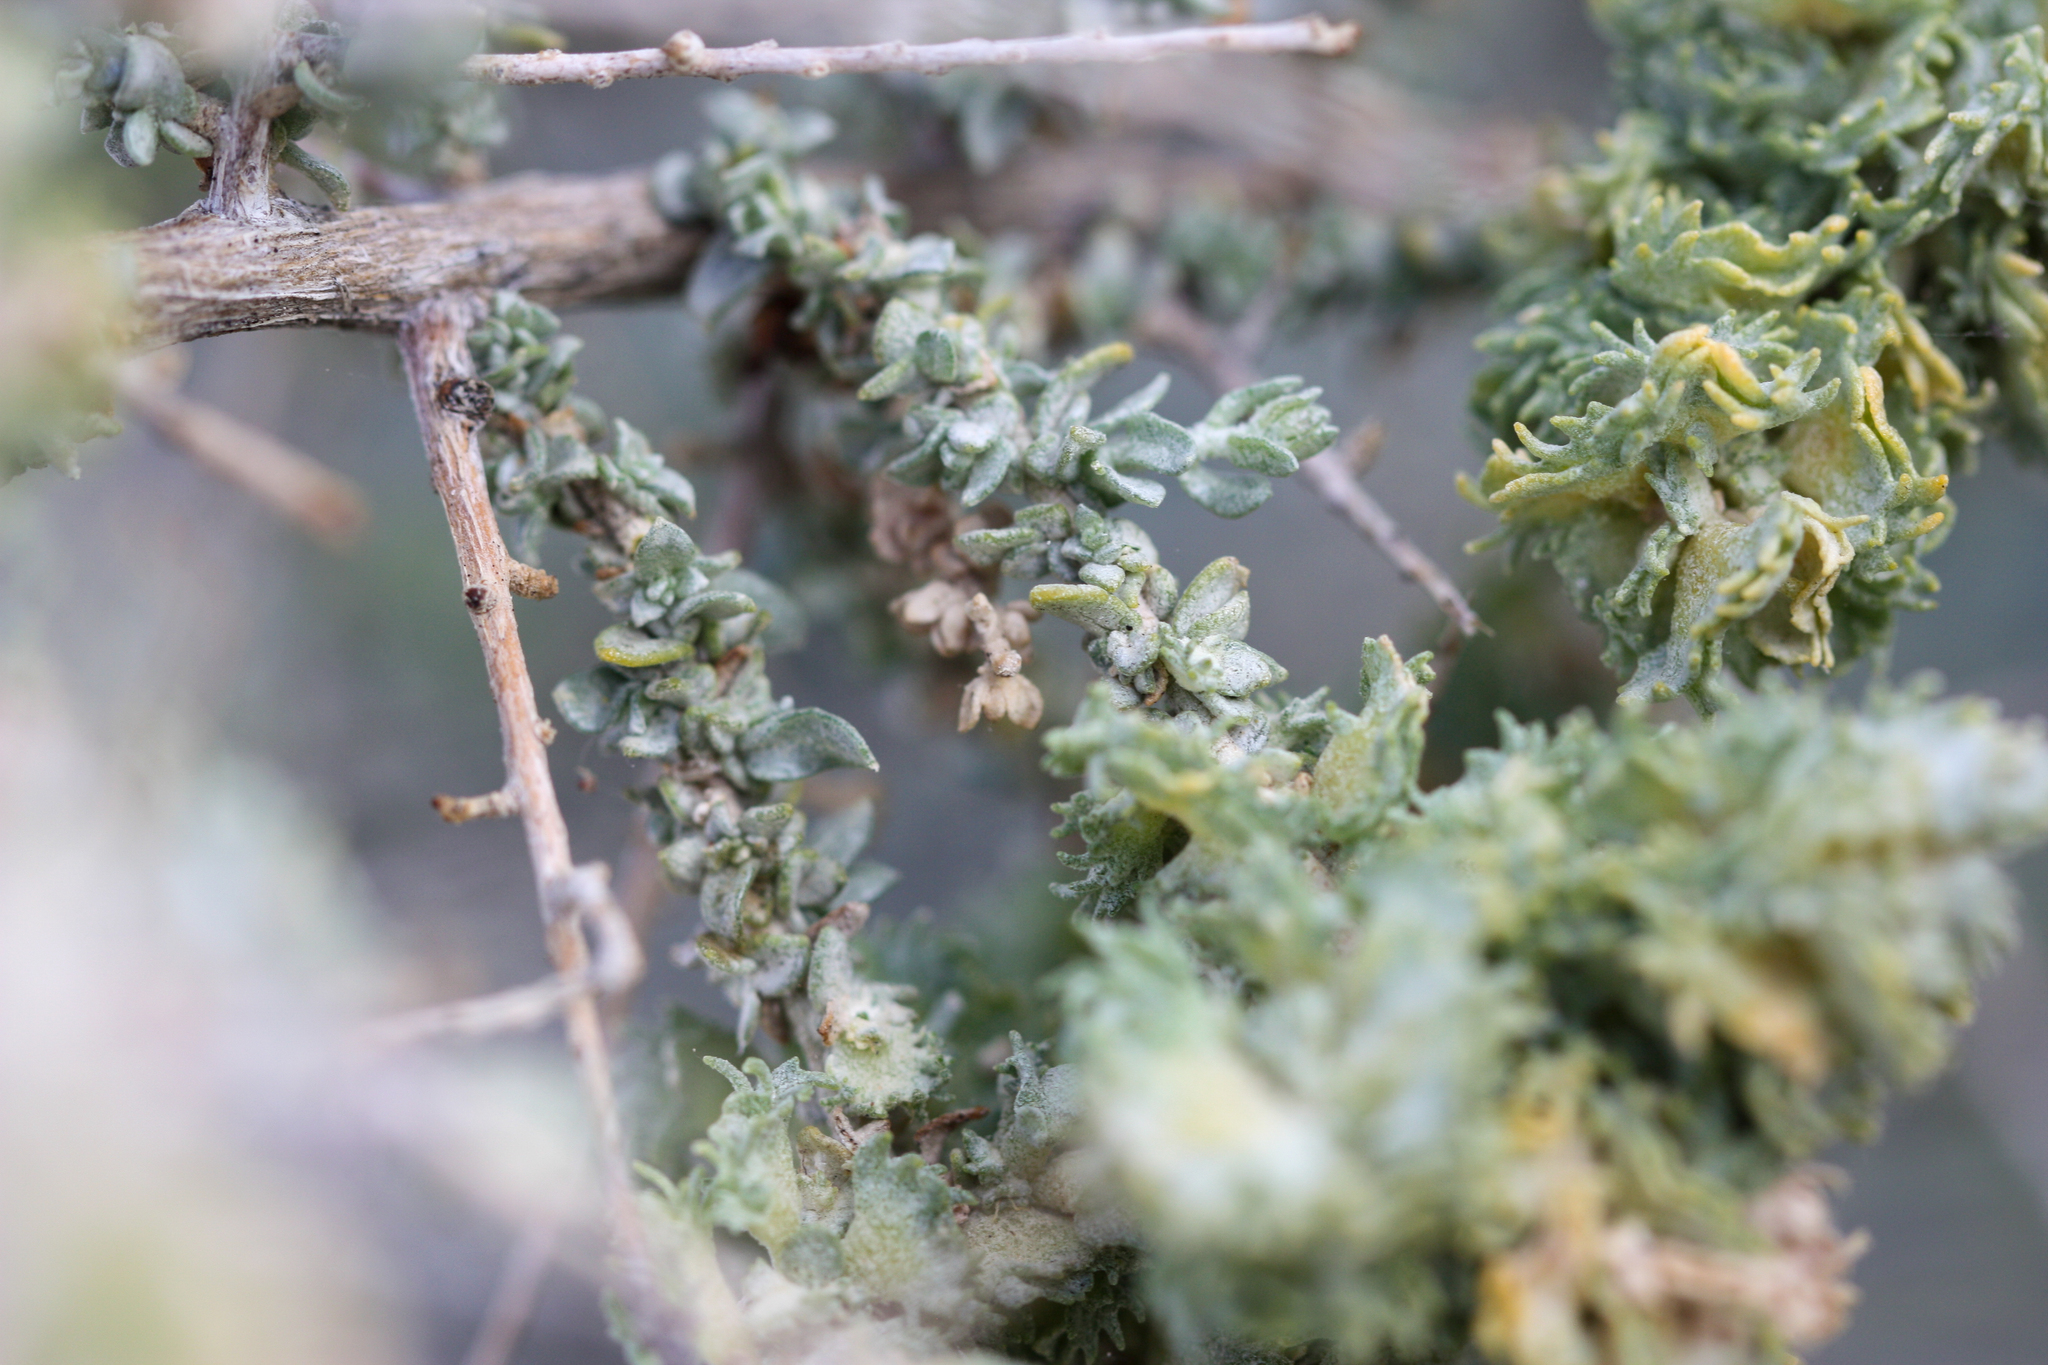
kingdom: Plantae
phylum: Tracheophyta
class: Magnoliopsida
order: Caryophyllales
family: Amaranthaceae
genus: Atriplex
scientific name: Atriplex polycarpa
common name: Desert saltbush
